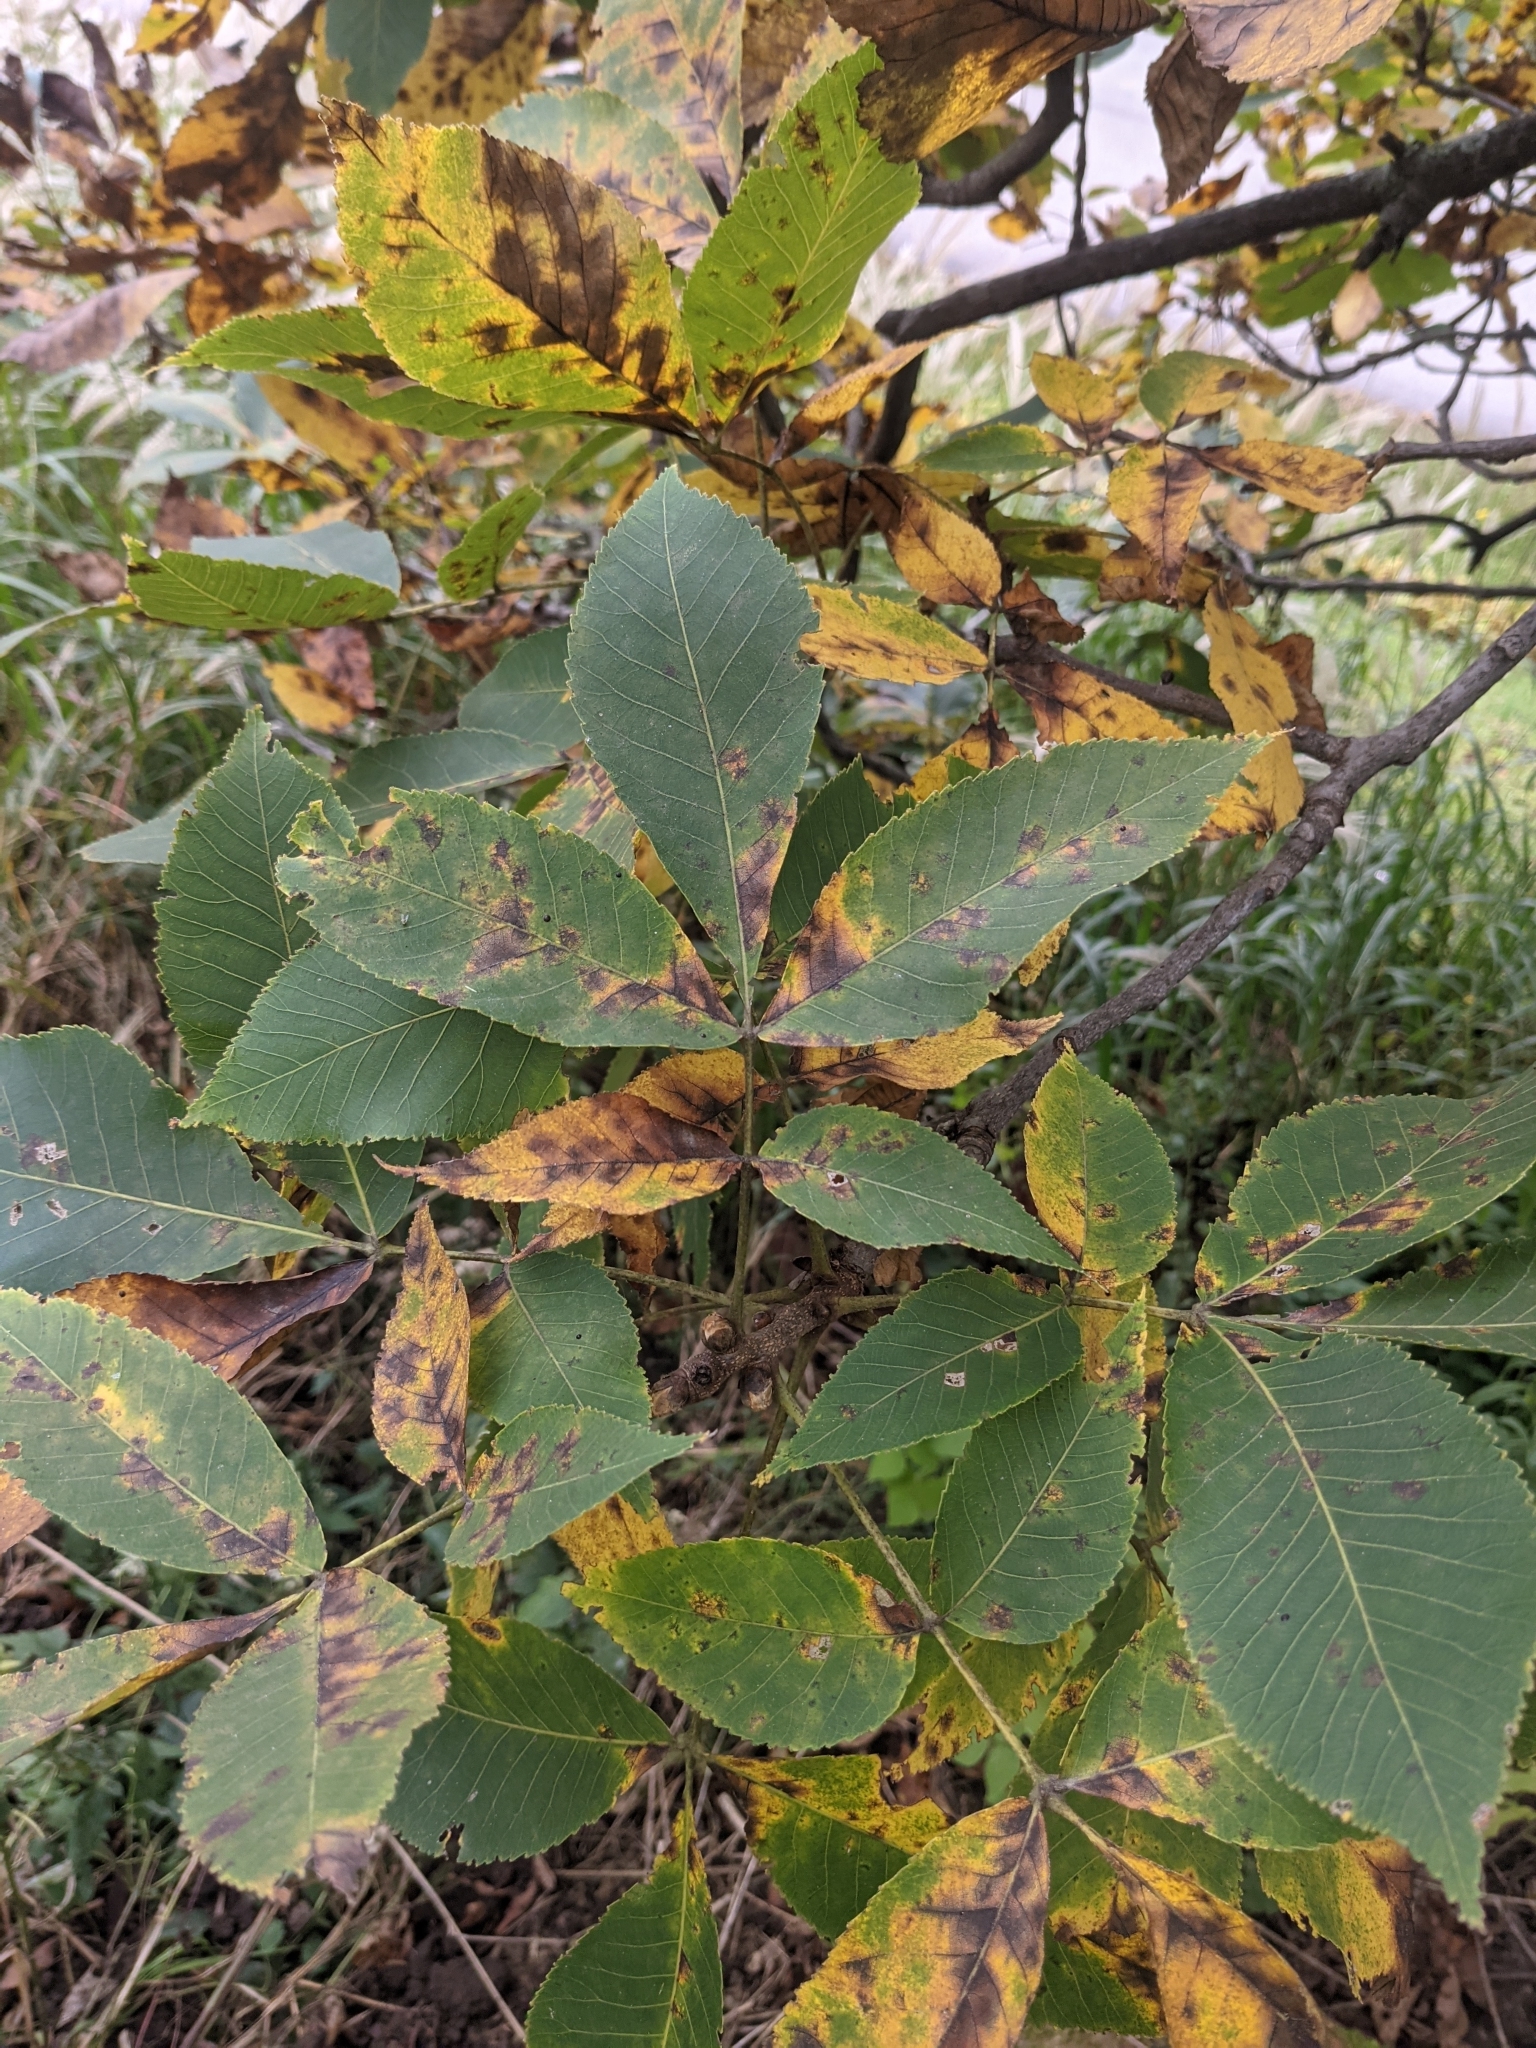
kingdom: Plantae
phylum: Tracheophyta
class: Magnoliopsida
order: Fagales
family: Juglandaceae
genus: Carya
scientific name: Carya ovata
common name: Shagbark hickory
